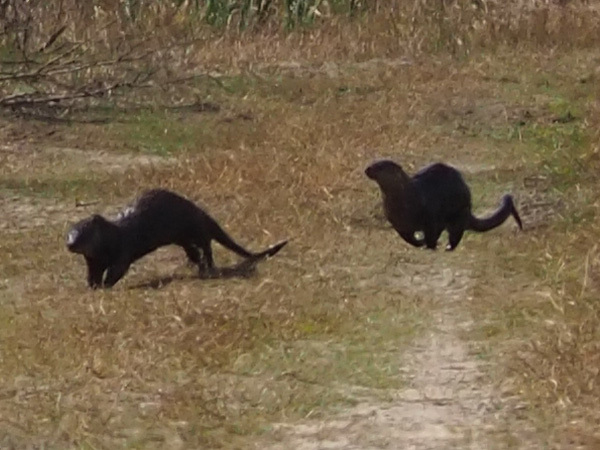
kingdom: Animalia
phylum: Chordata
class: Mammalia
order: Carnivora
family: Mustelidae
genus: Lontra
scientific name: Lontra canadensis
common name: North american river otter
